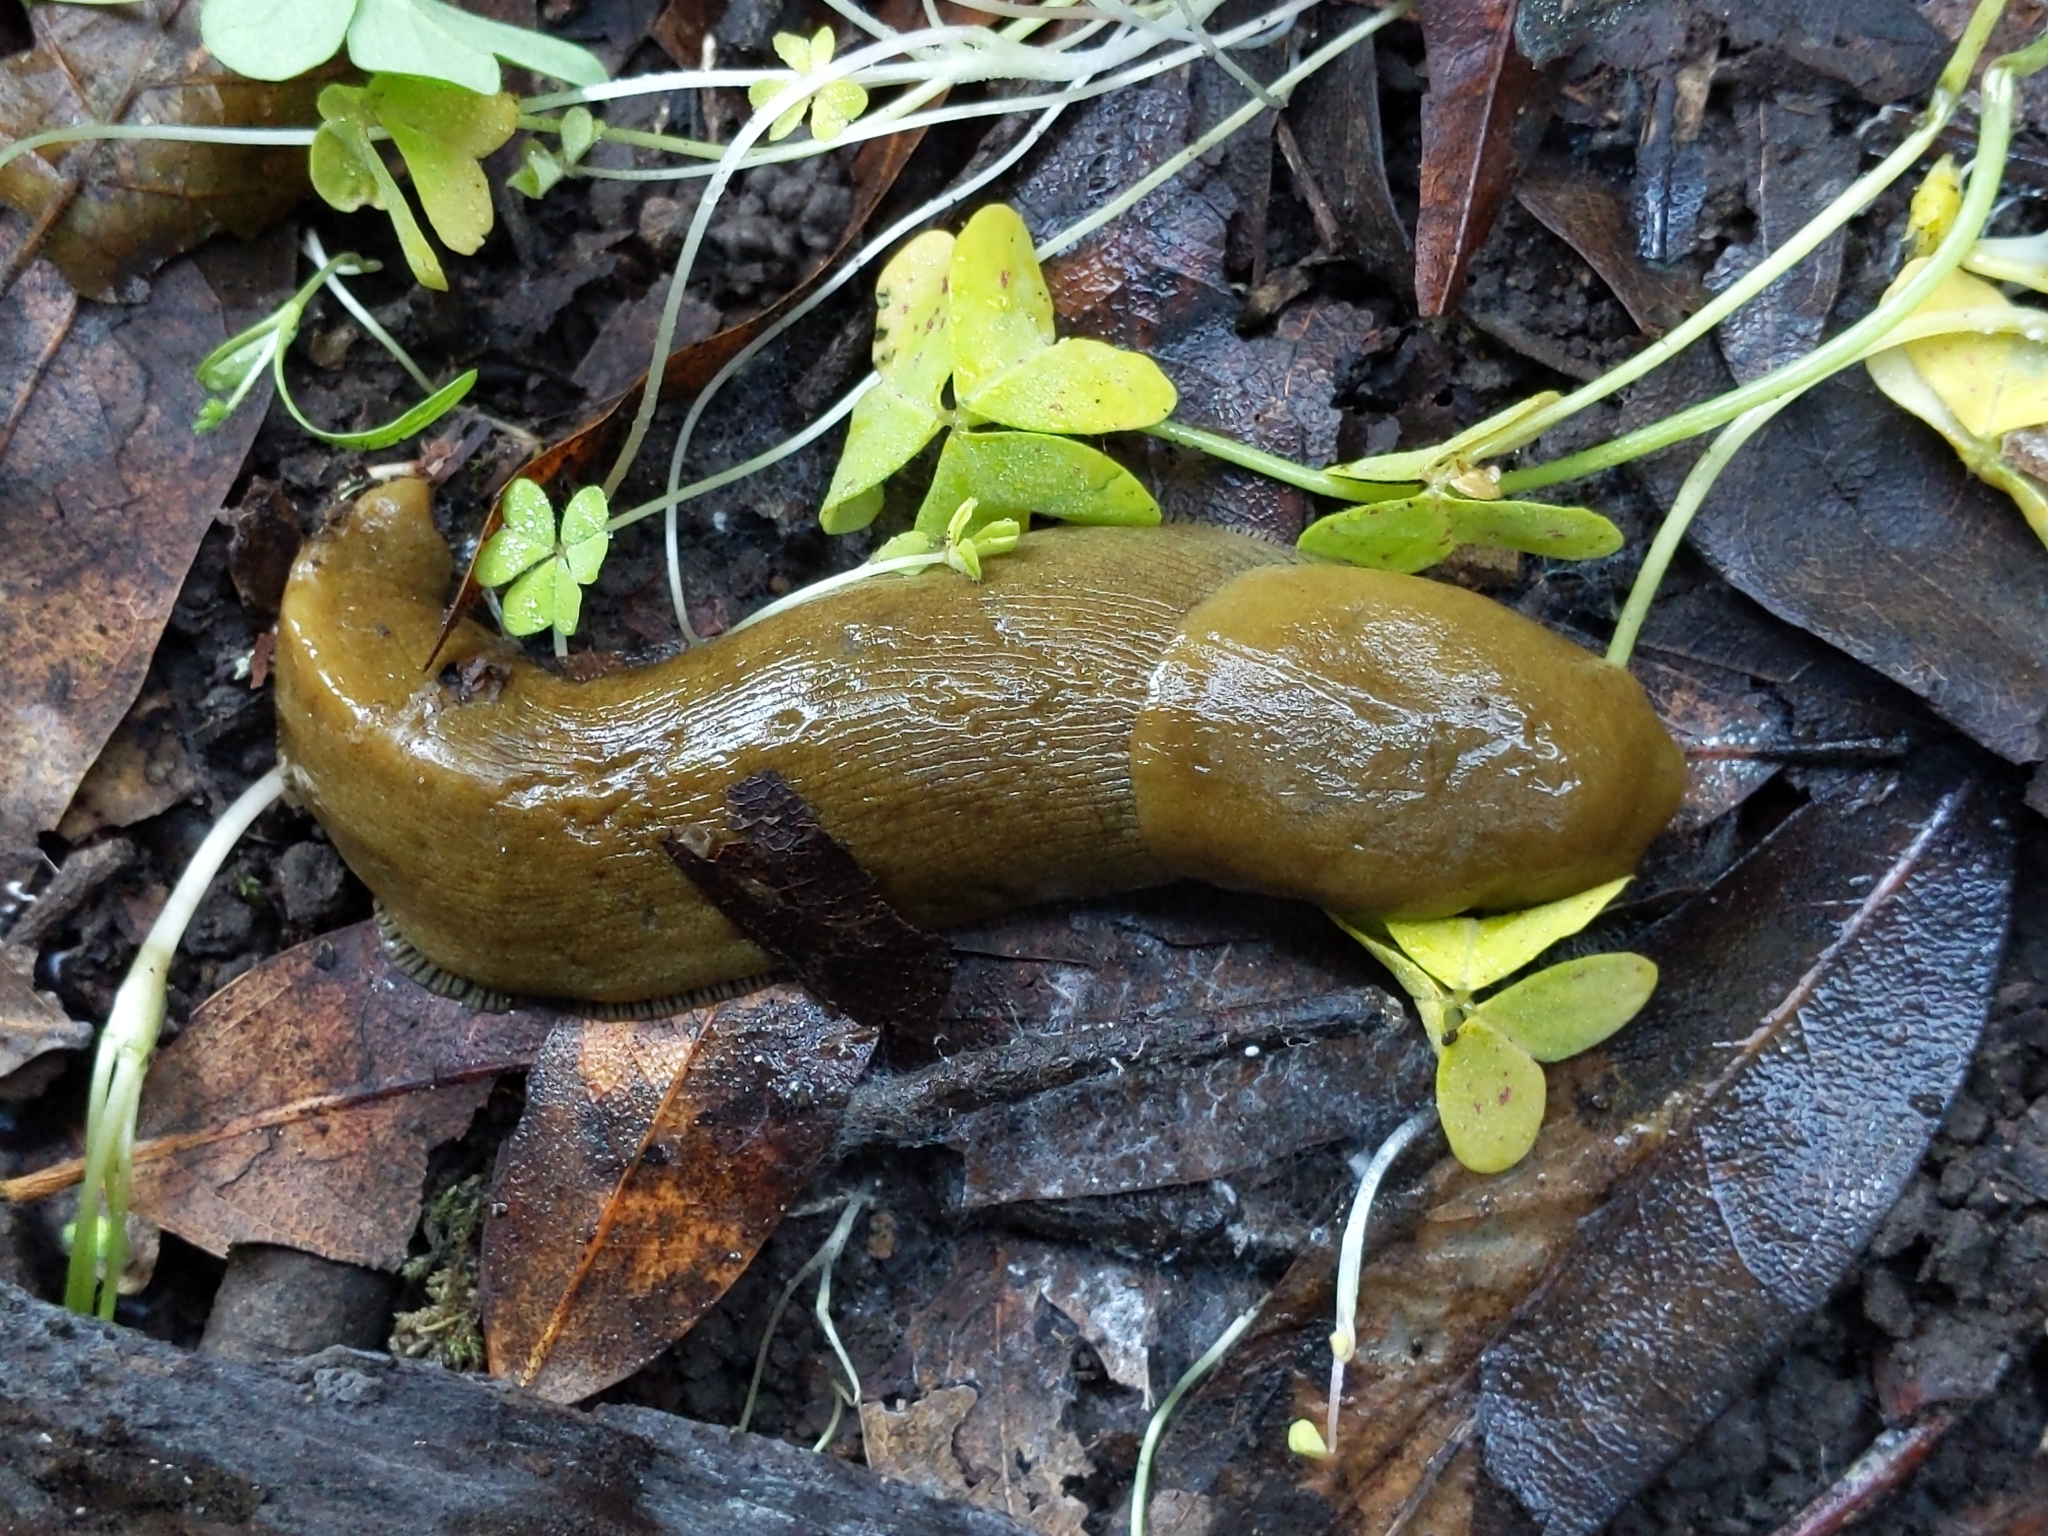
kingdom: Animalia
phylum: Mollusca
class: Gastropoda
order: Stylommatophora
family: Ariolimacidae
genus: Ariolimax
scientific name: Ariolimax buttoni
